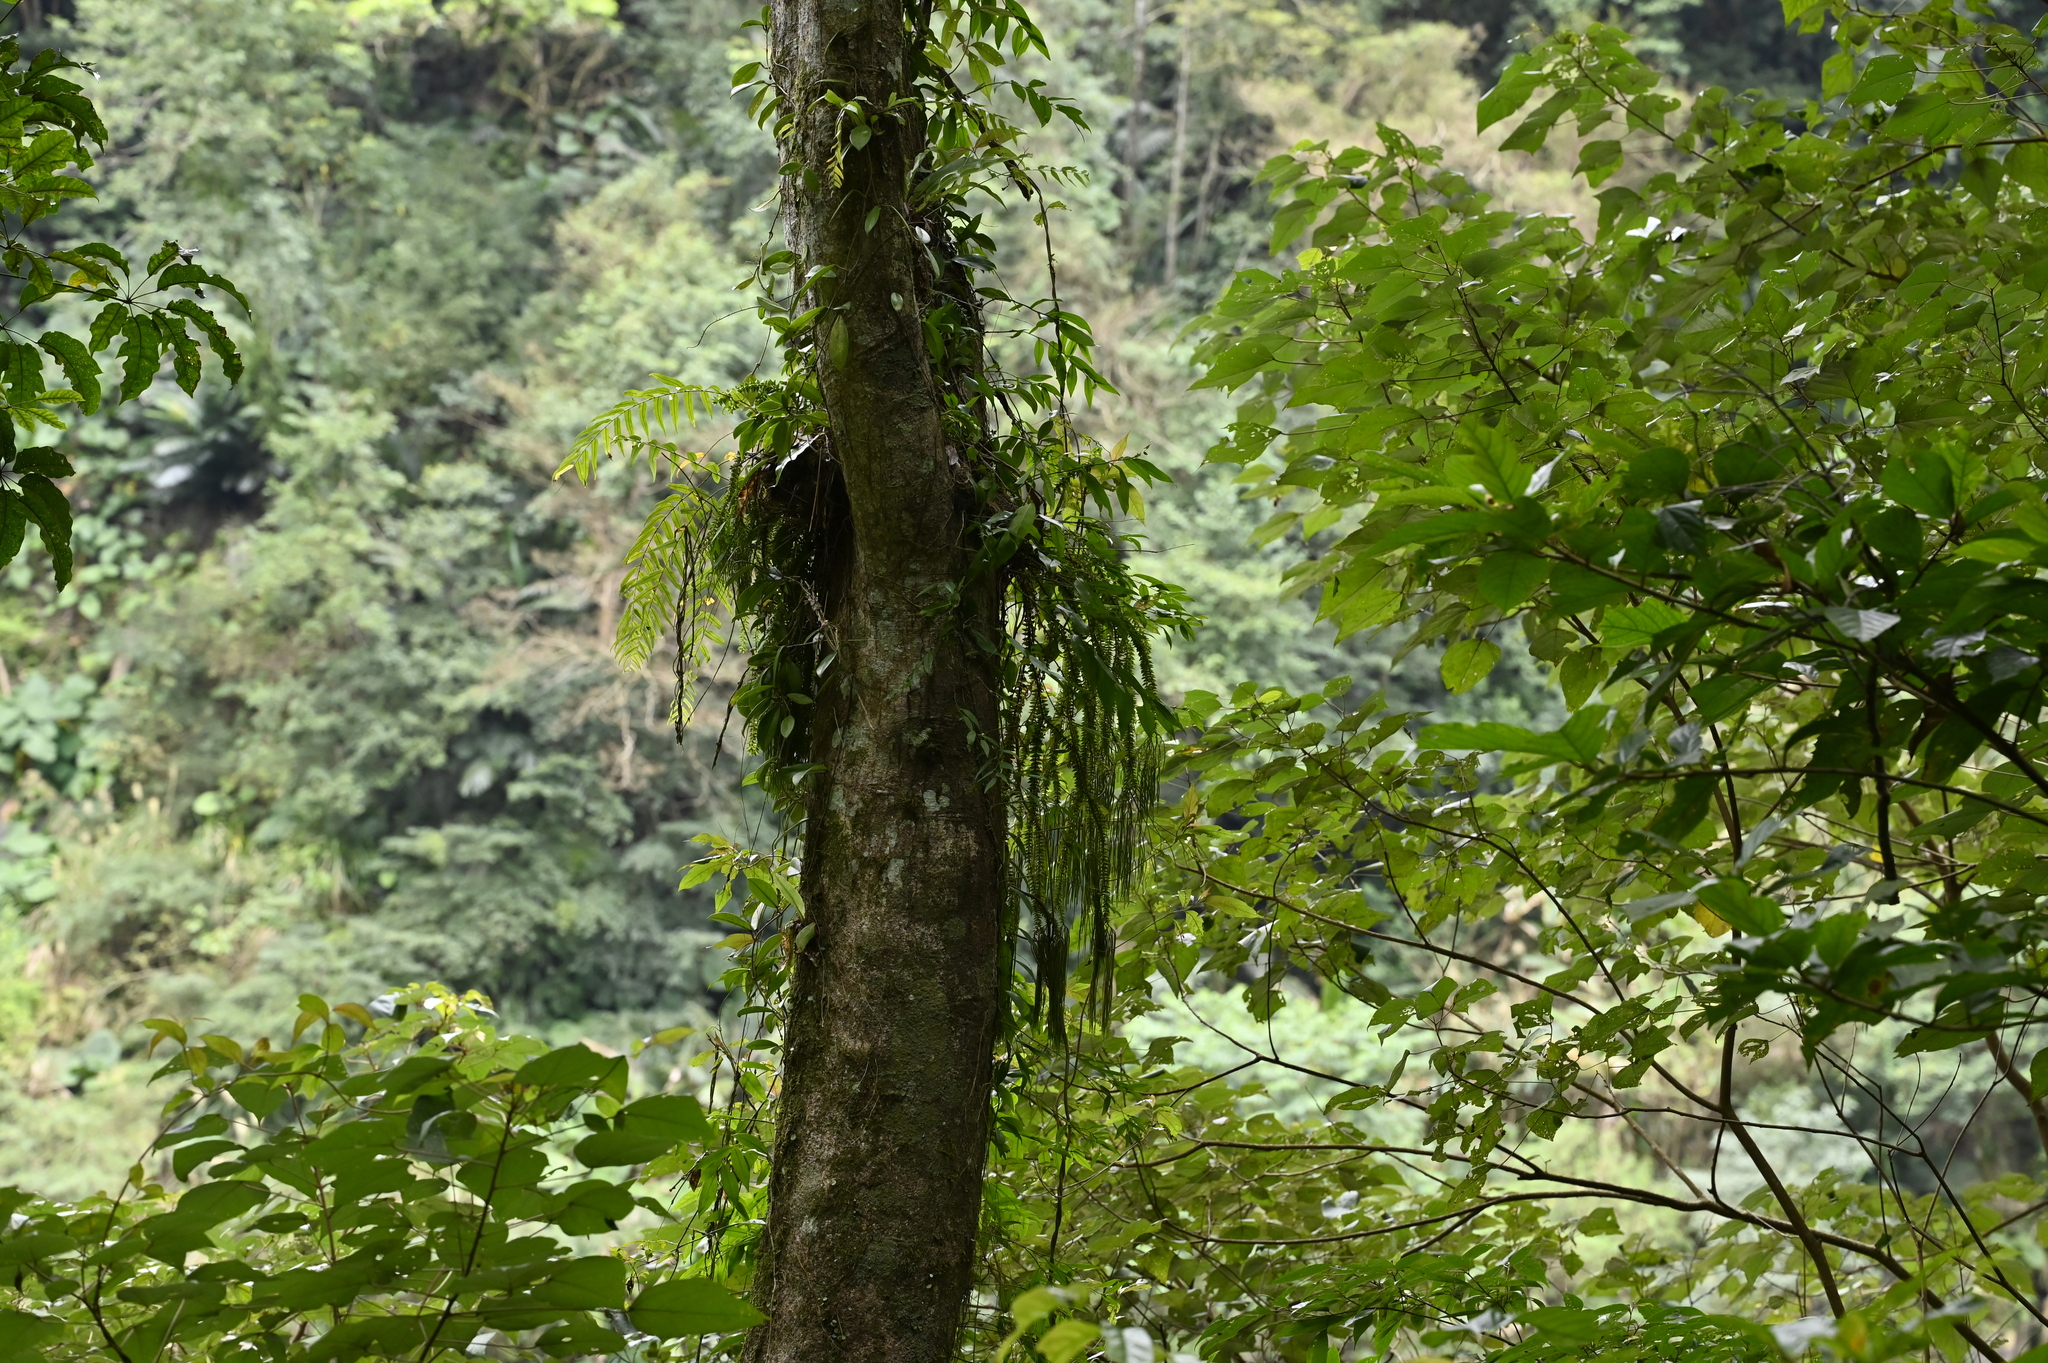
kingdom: Plantae
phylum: Tracheophyta
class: Lycopodiopsida
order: Lycopodiales
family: Lycopodiaceae
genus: Phlegmariurus
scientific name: Phlegmariurus phlegmaria
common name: Coarse tassel-fern
